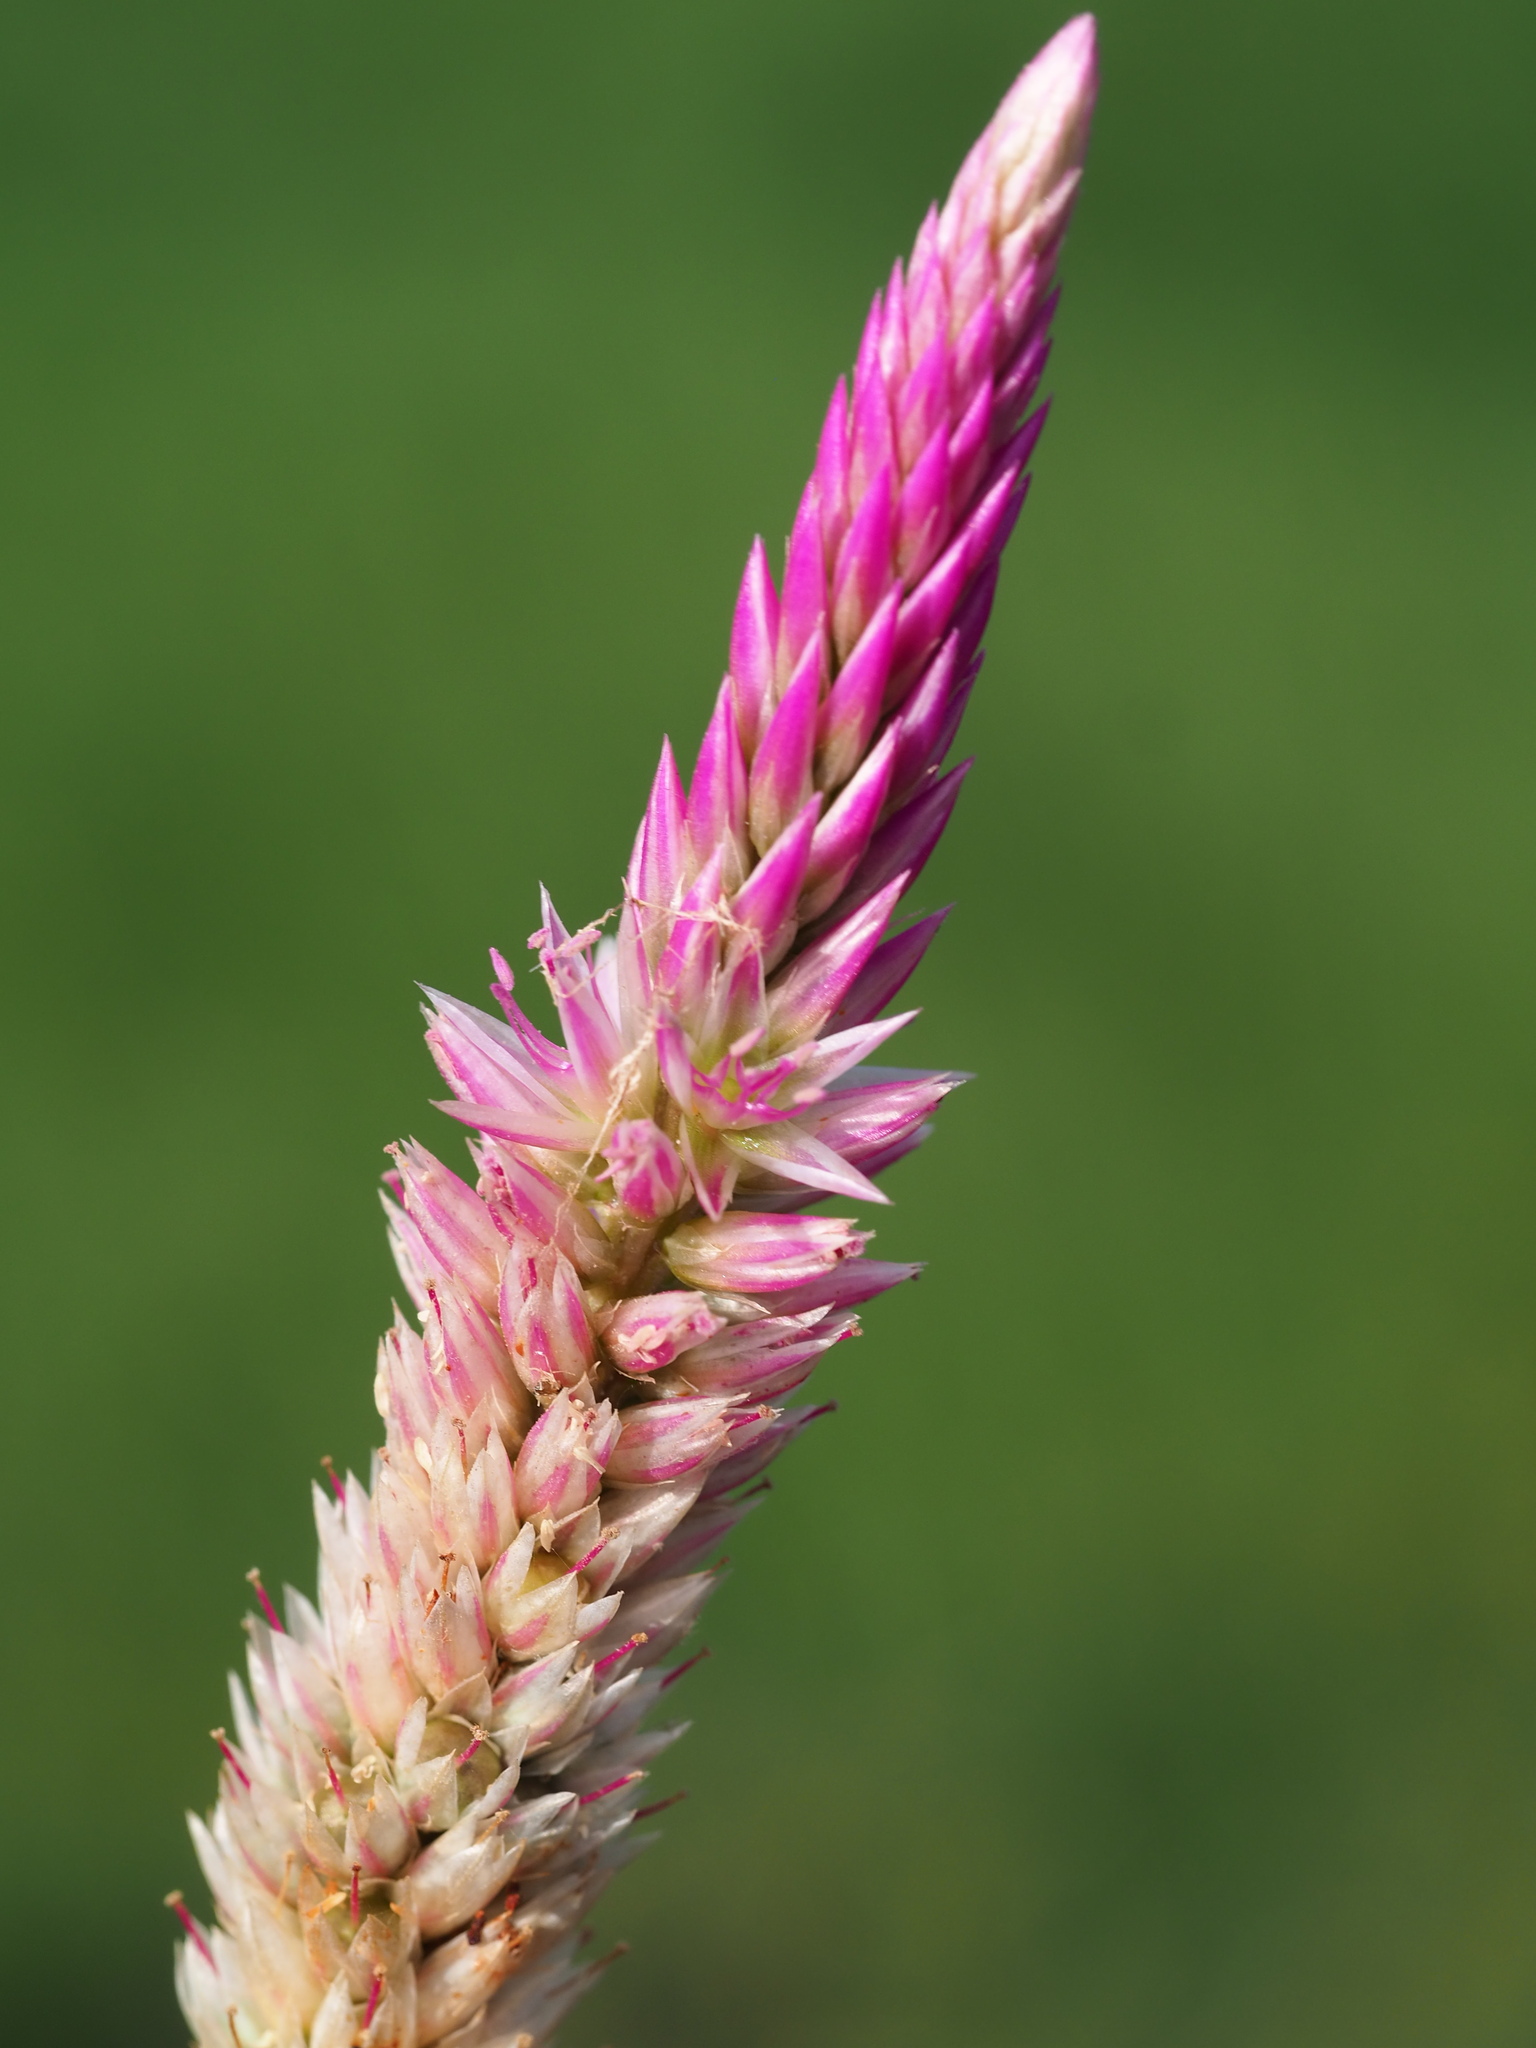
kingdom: Plantae
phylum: Tracheophyta
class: Magnoliopsida
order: Caryophyllales
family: Amaranthaceae
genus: Celosia
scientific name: Celosia argentea
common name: Feather cockscomb
